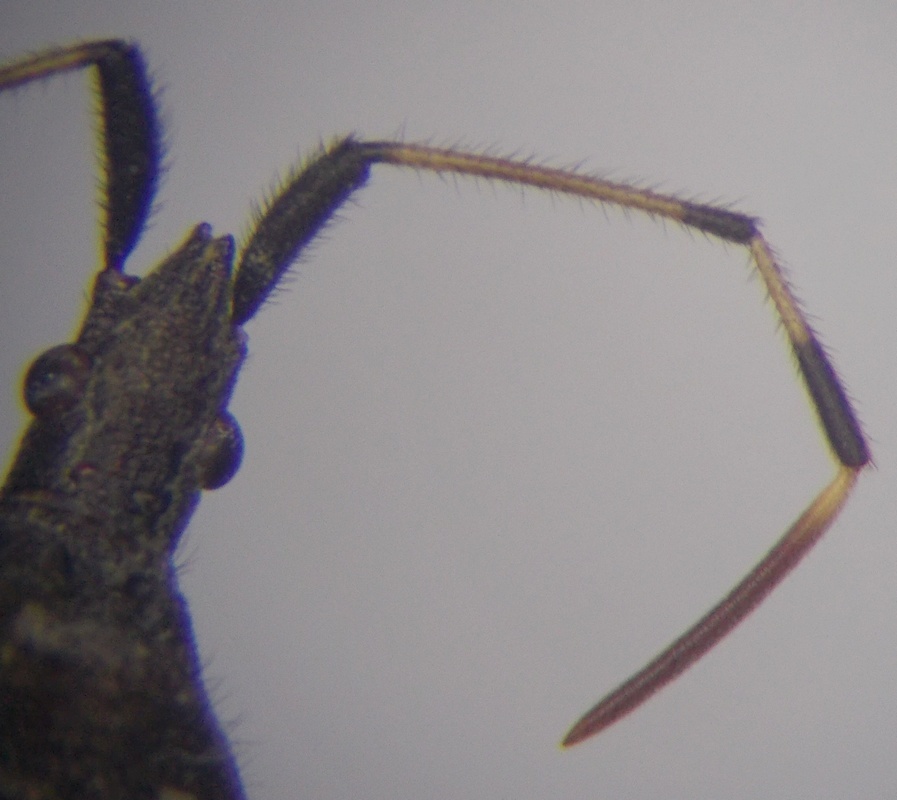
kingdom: Animalia
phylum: Arthropoda
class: Insecta
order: Hemiptera
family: Stenocephalidae
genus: Dicranocephalus
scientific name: Dicranocephalus albipes
